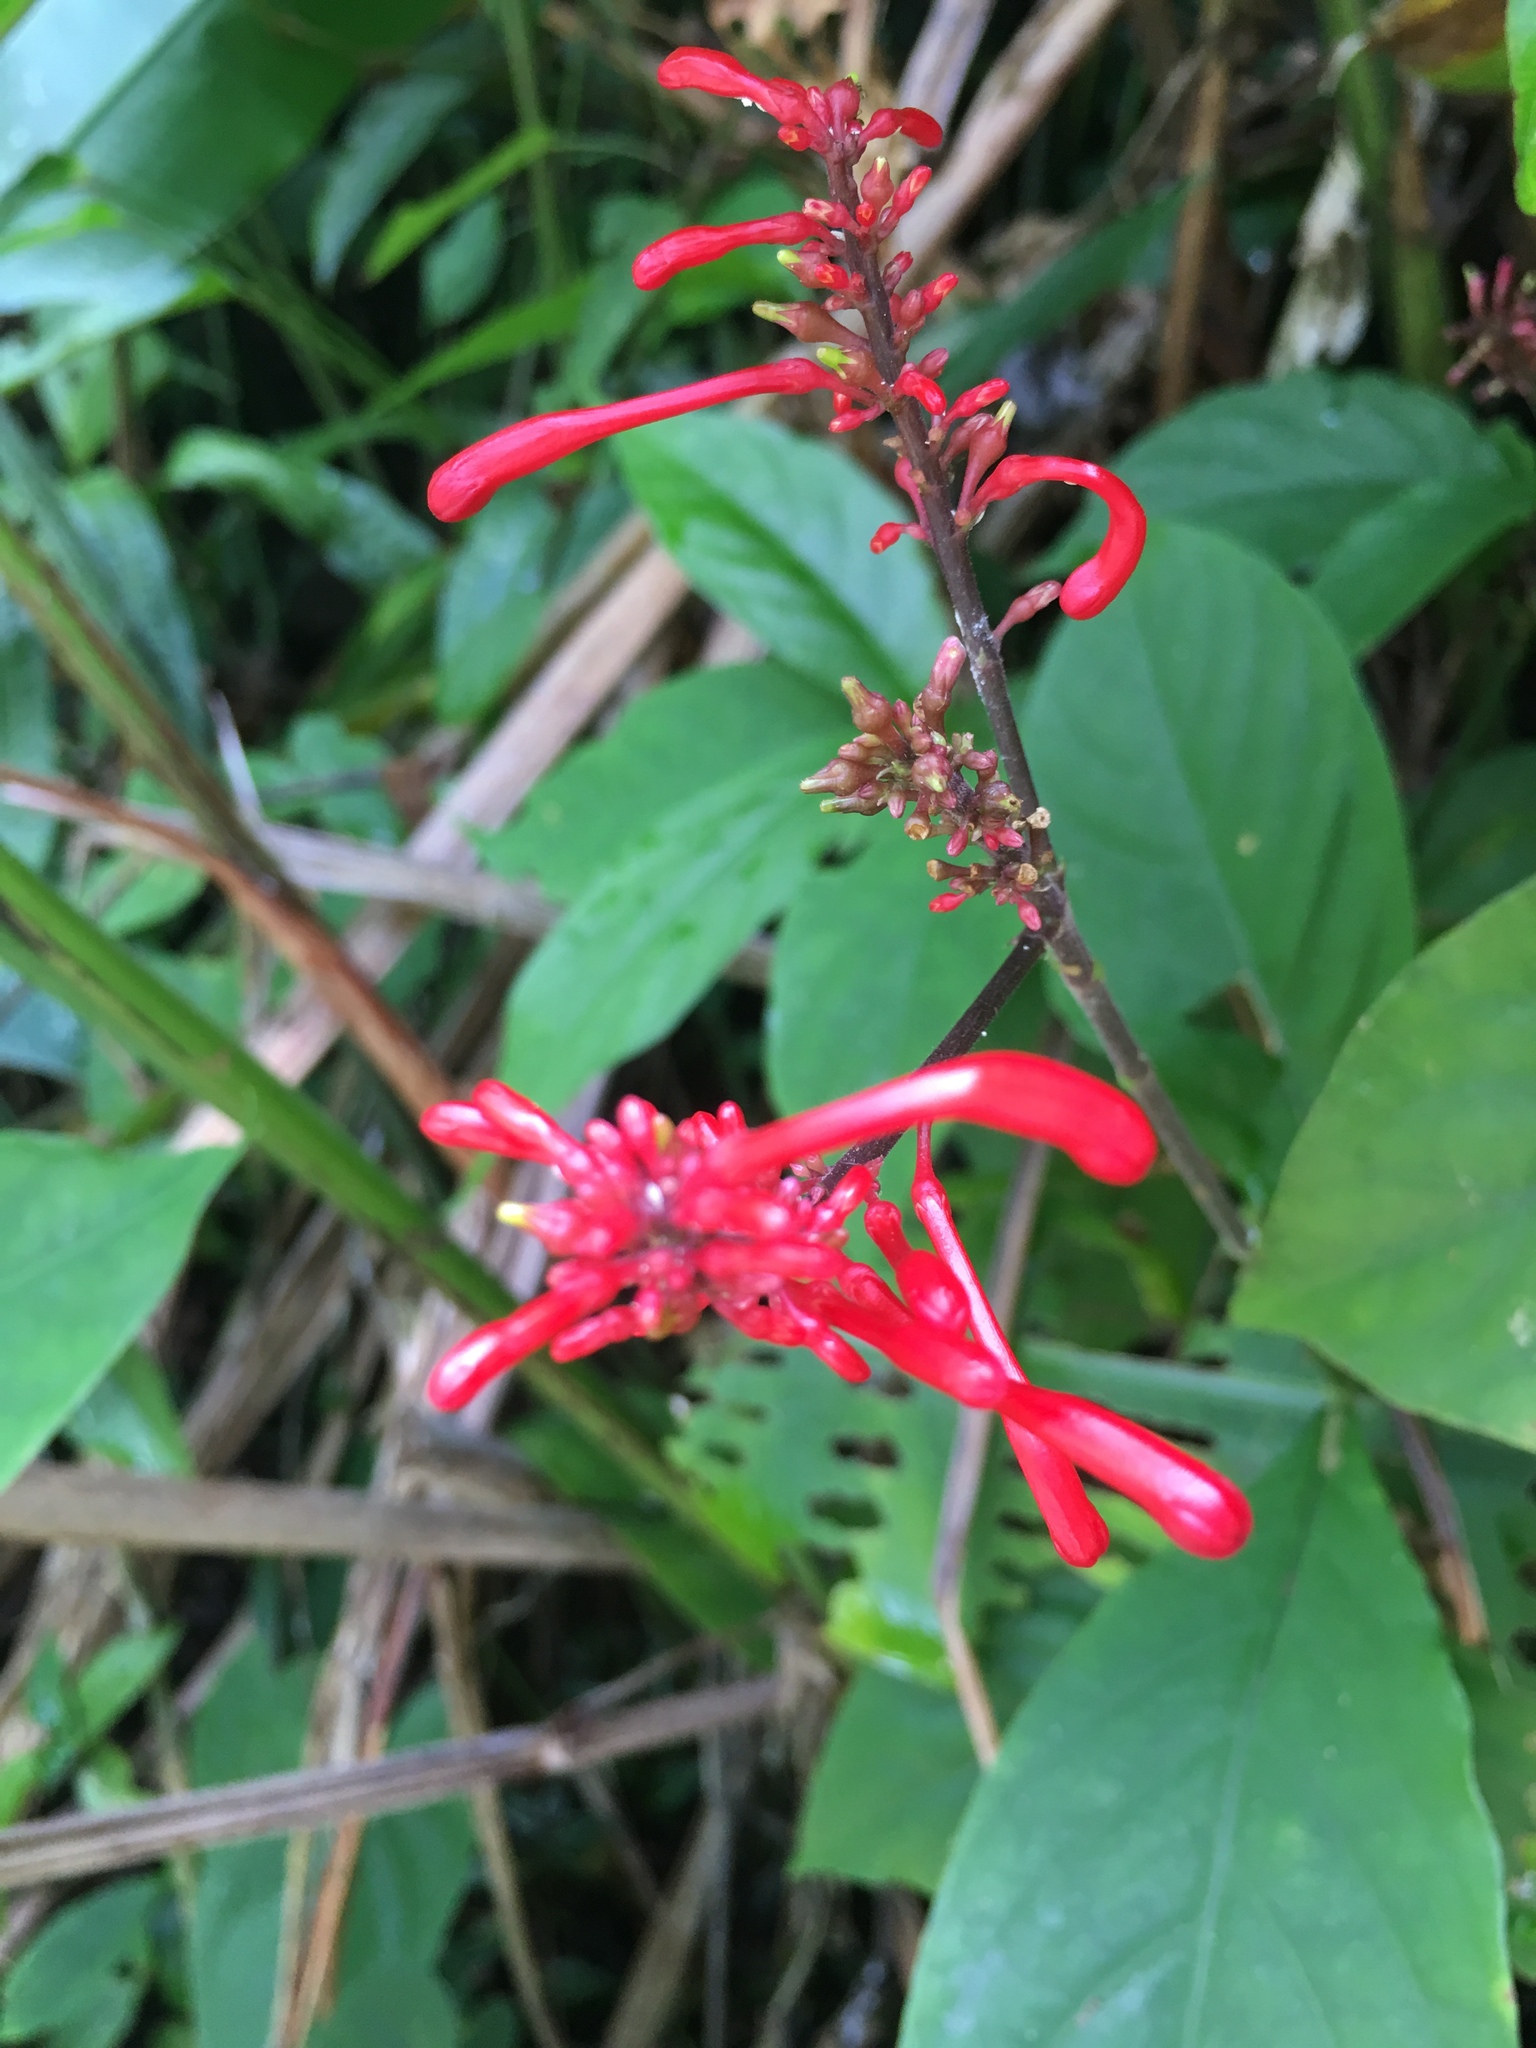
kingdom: Plantae
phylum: Tracheophyta
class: Magnoliopsida
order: Lamiales
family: Acanthaceae
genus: Odontonema
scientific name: Odontonema tubaeforme
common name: Firespike
